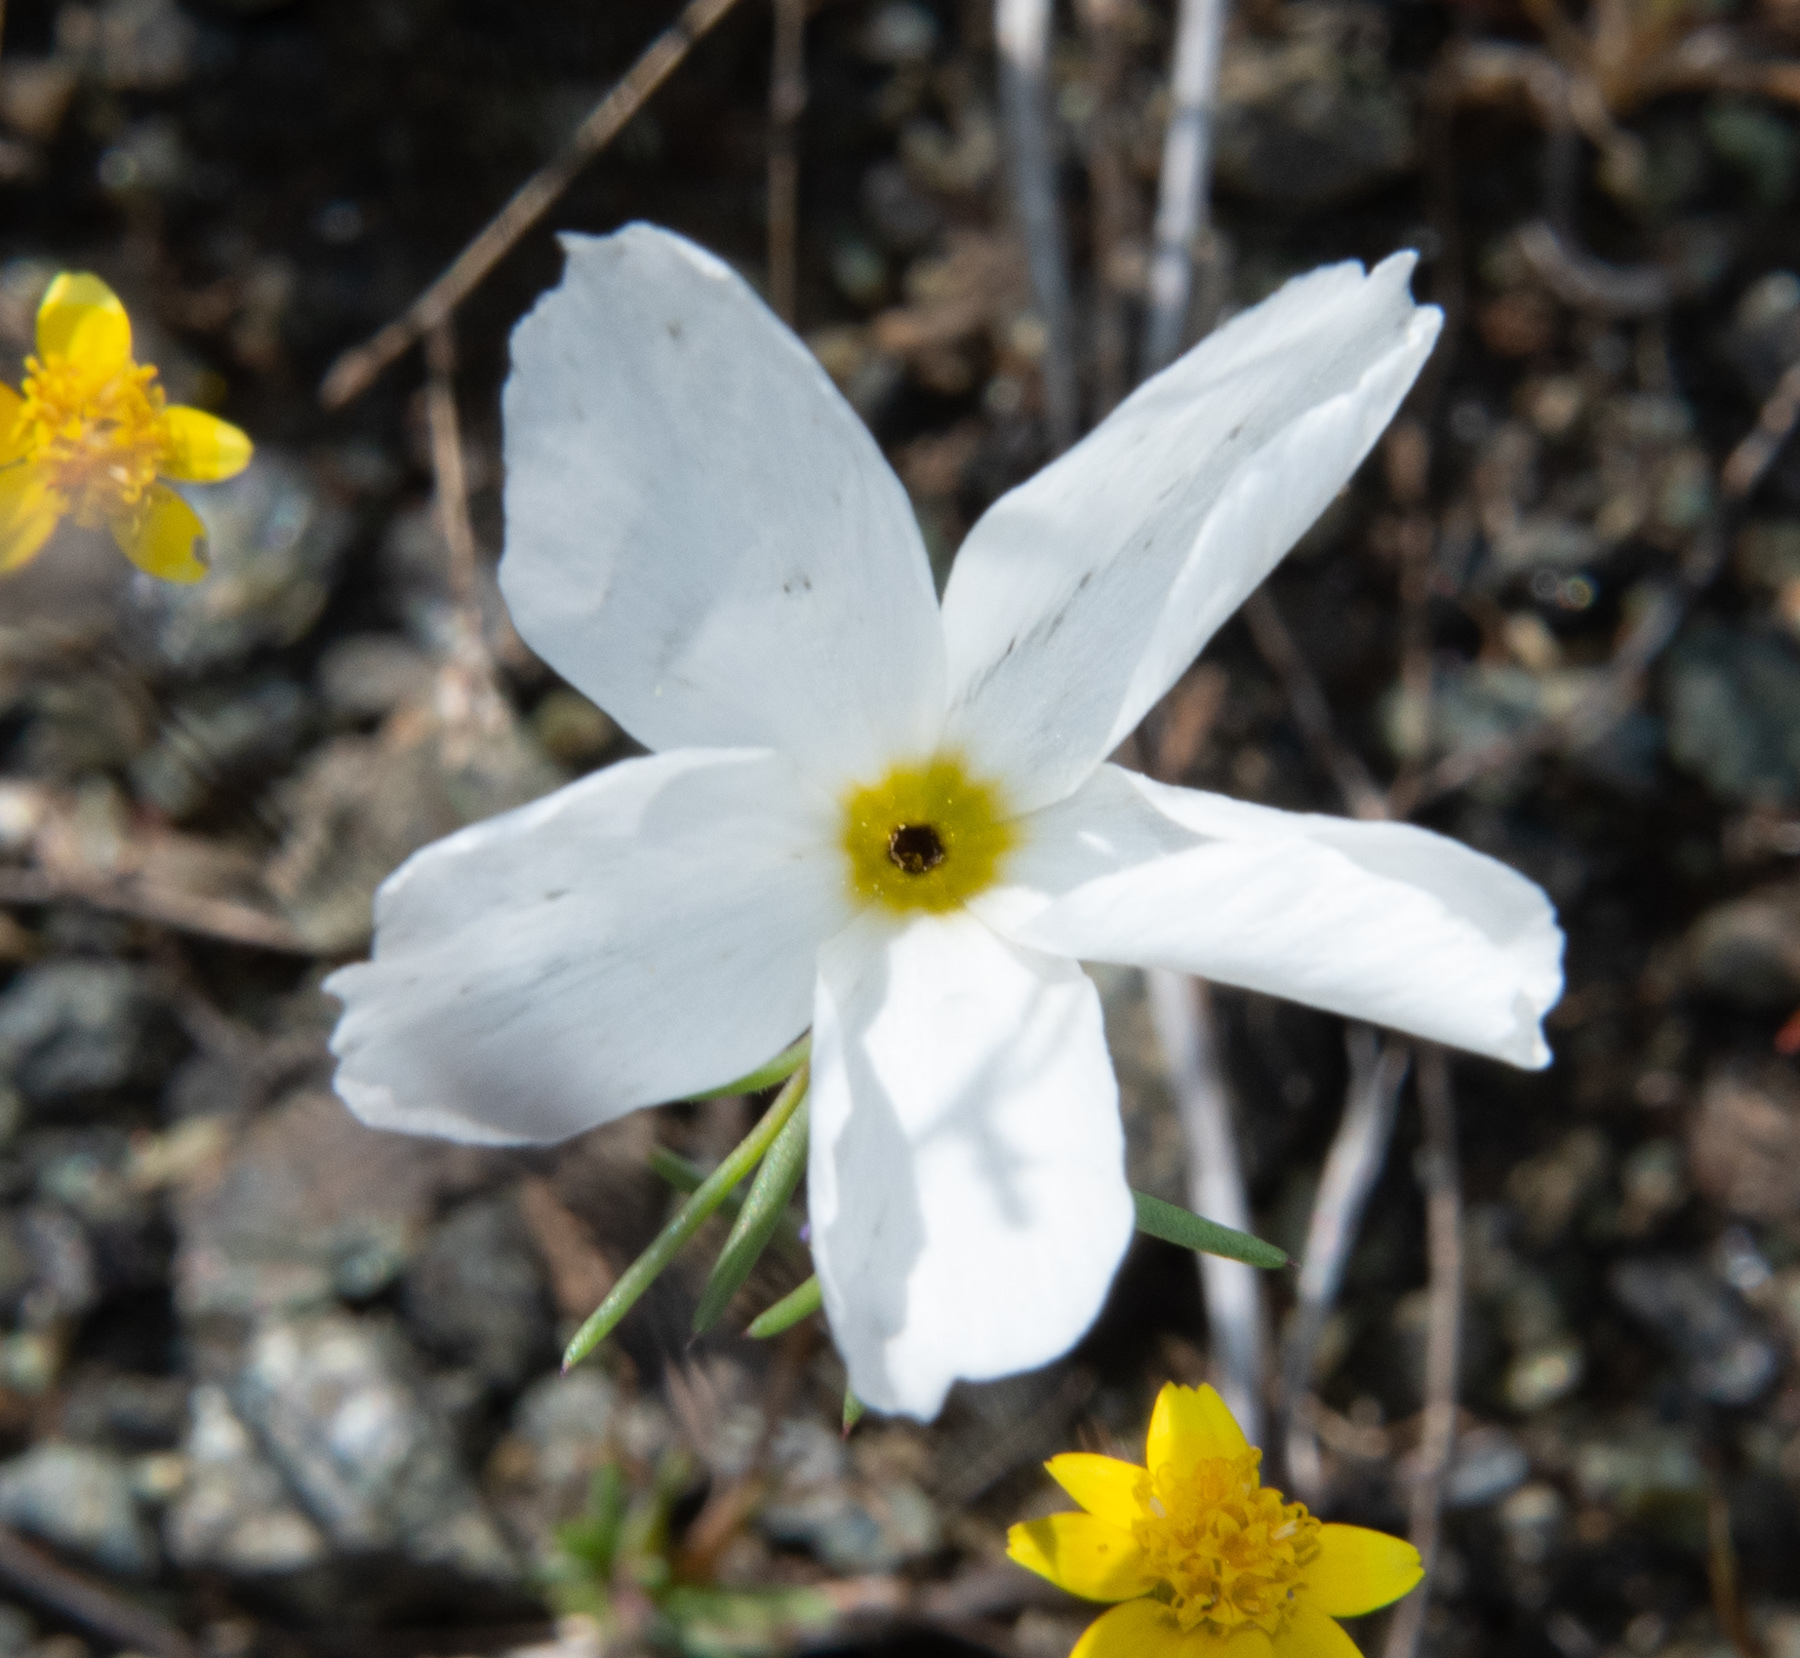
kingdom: Plantae
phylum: Tracheophyta
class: Magnoliopsida
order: Ericales
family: Polemoniaceae
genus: Linanthus
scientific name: Linanthus dichotomus
